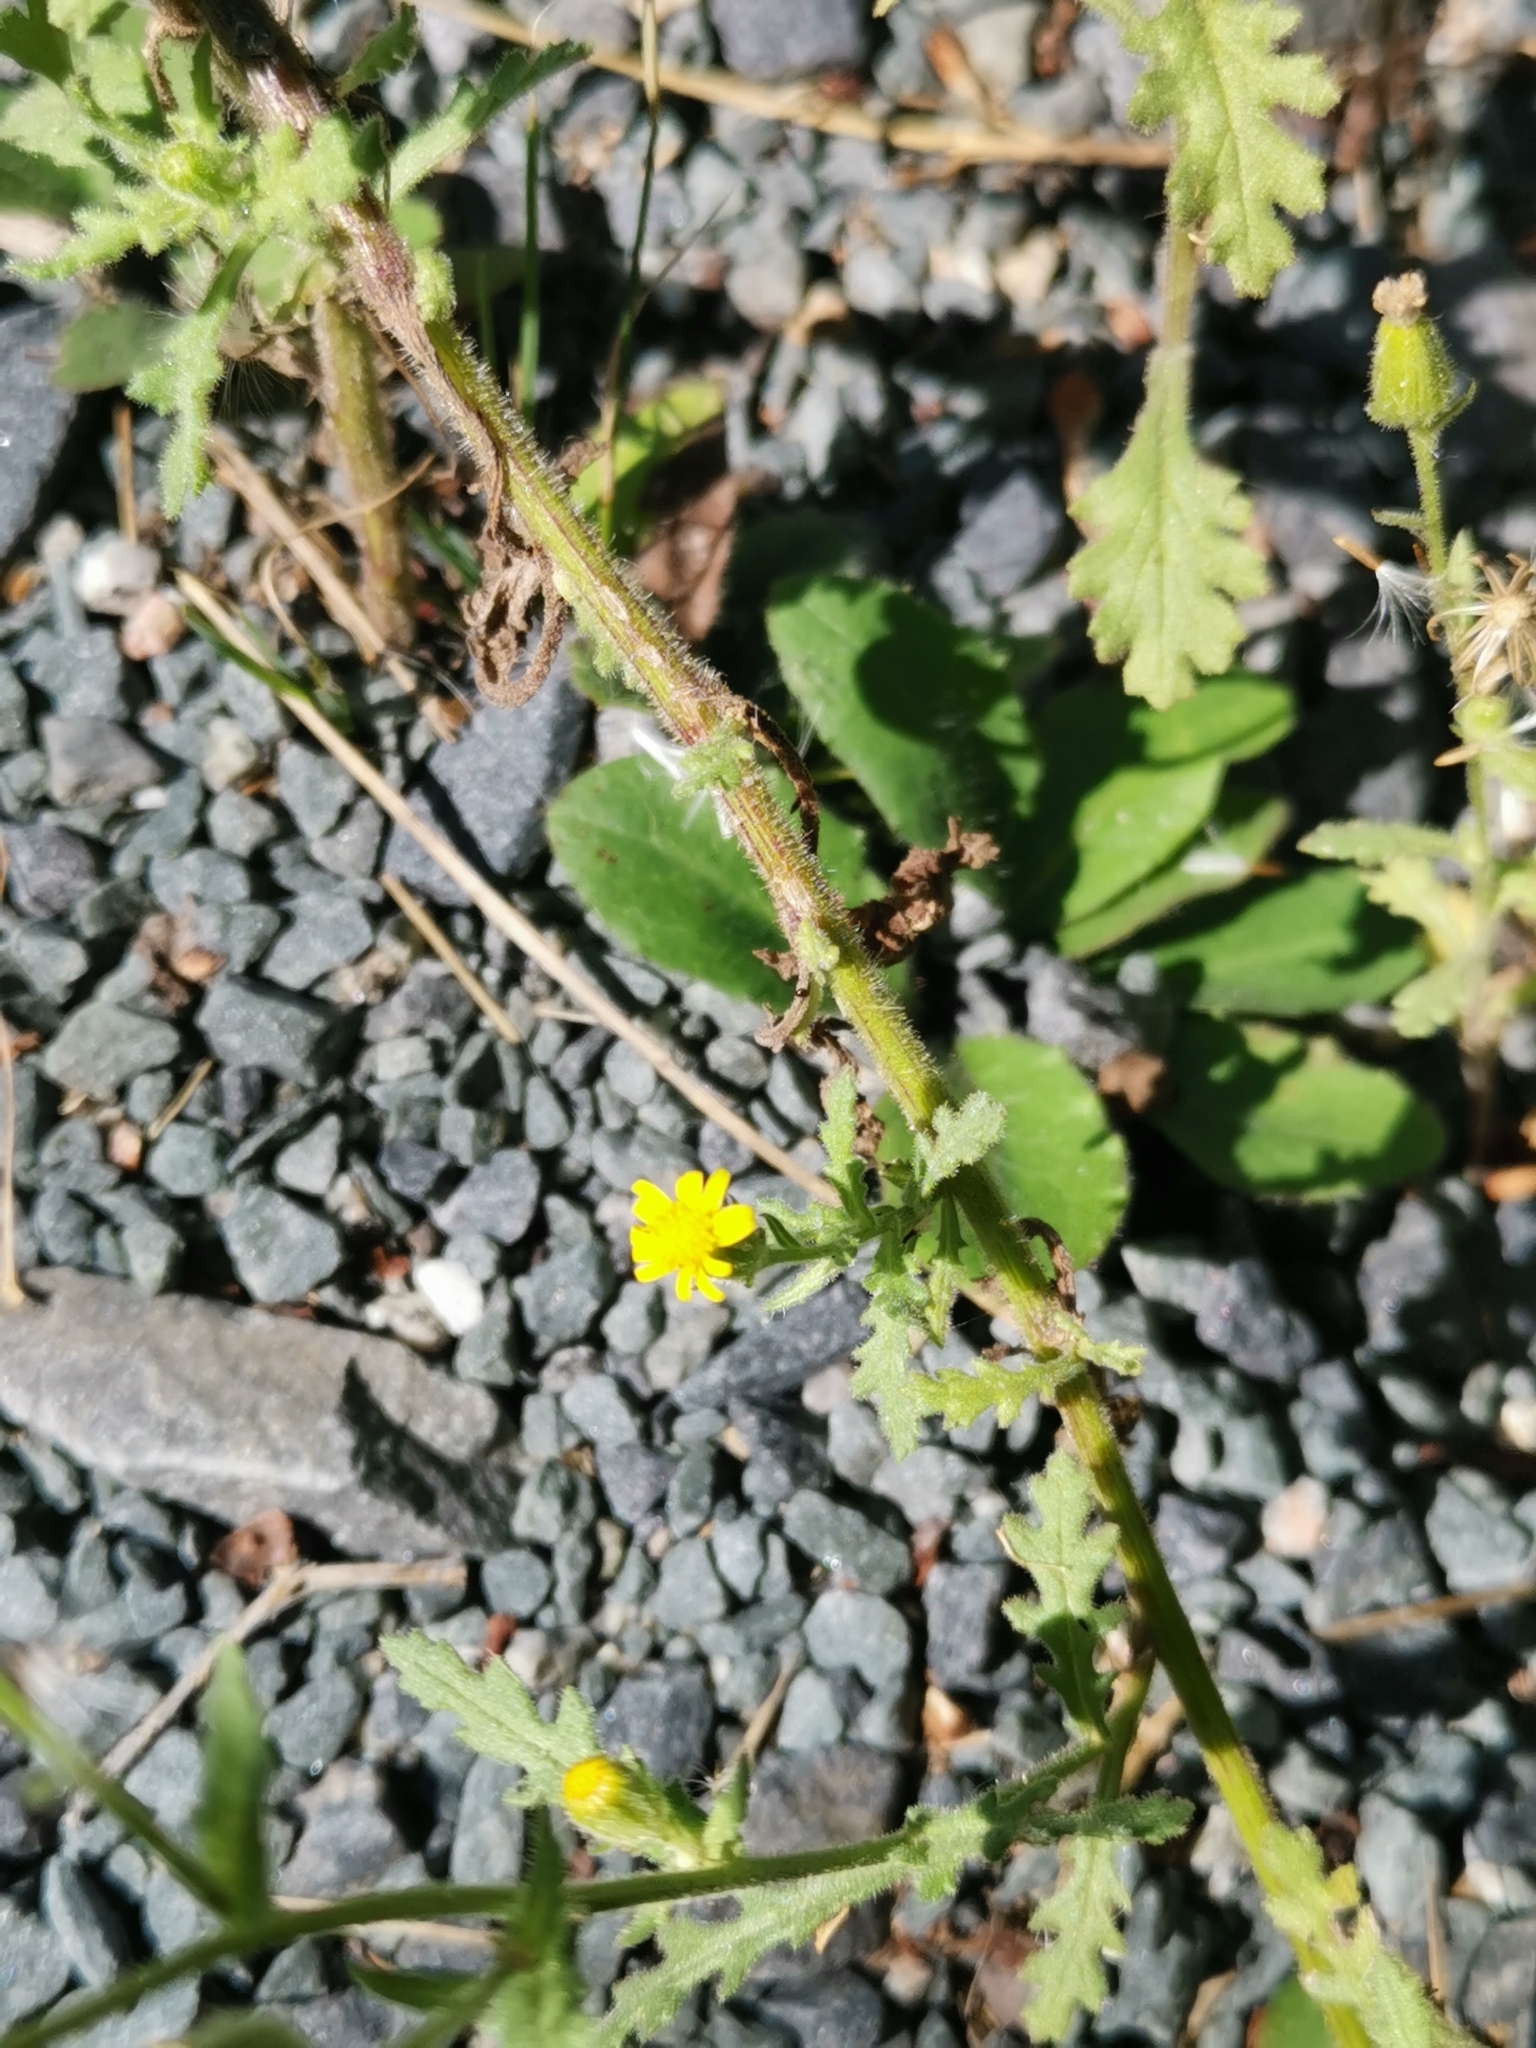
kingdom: Plantae
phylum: Tracheophyta
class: Magnoliopsida
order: Asterales
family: Asteraceae
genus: Senecio
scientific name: Senecio viscosus
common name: Sticky groundsel
